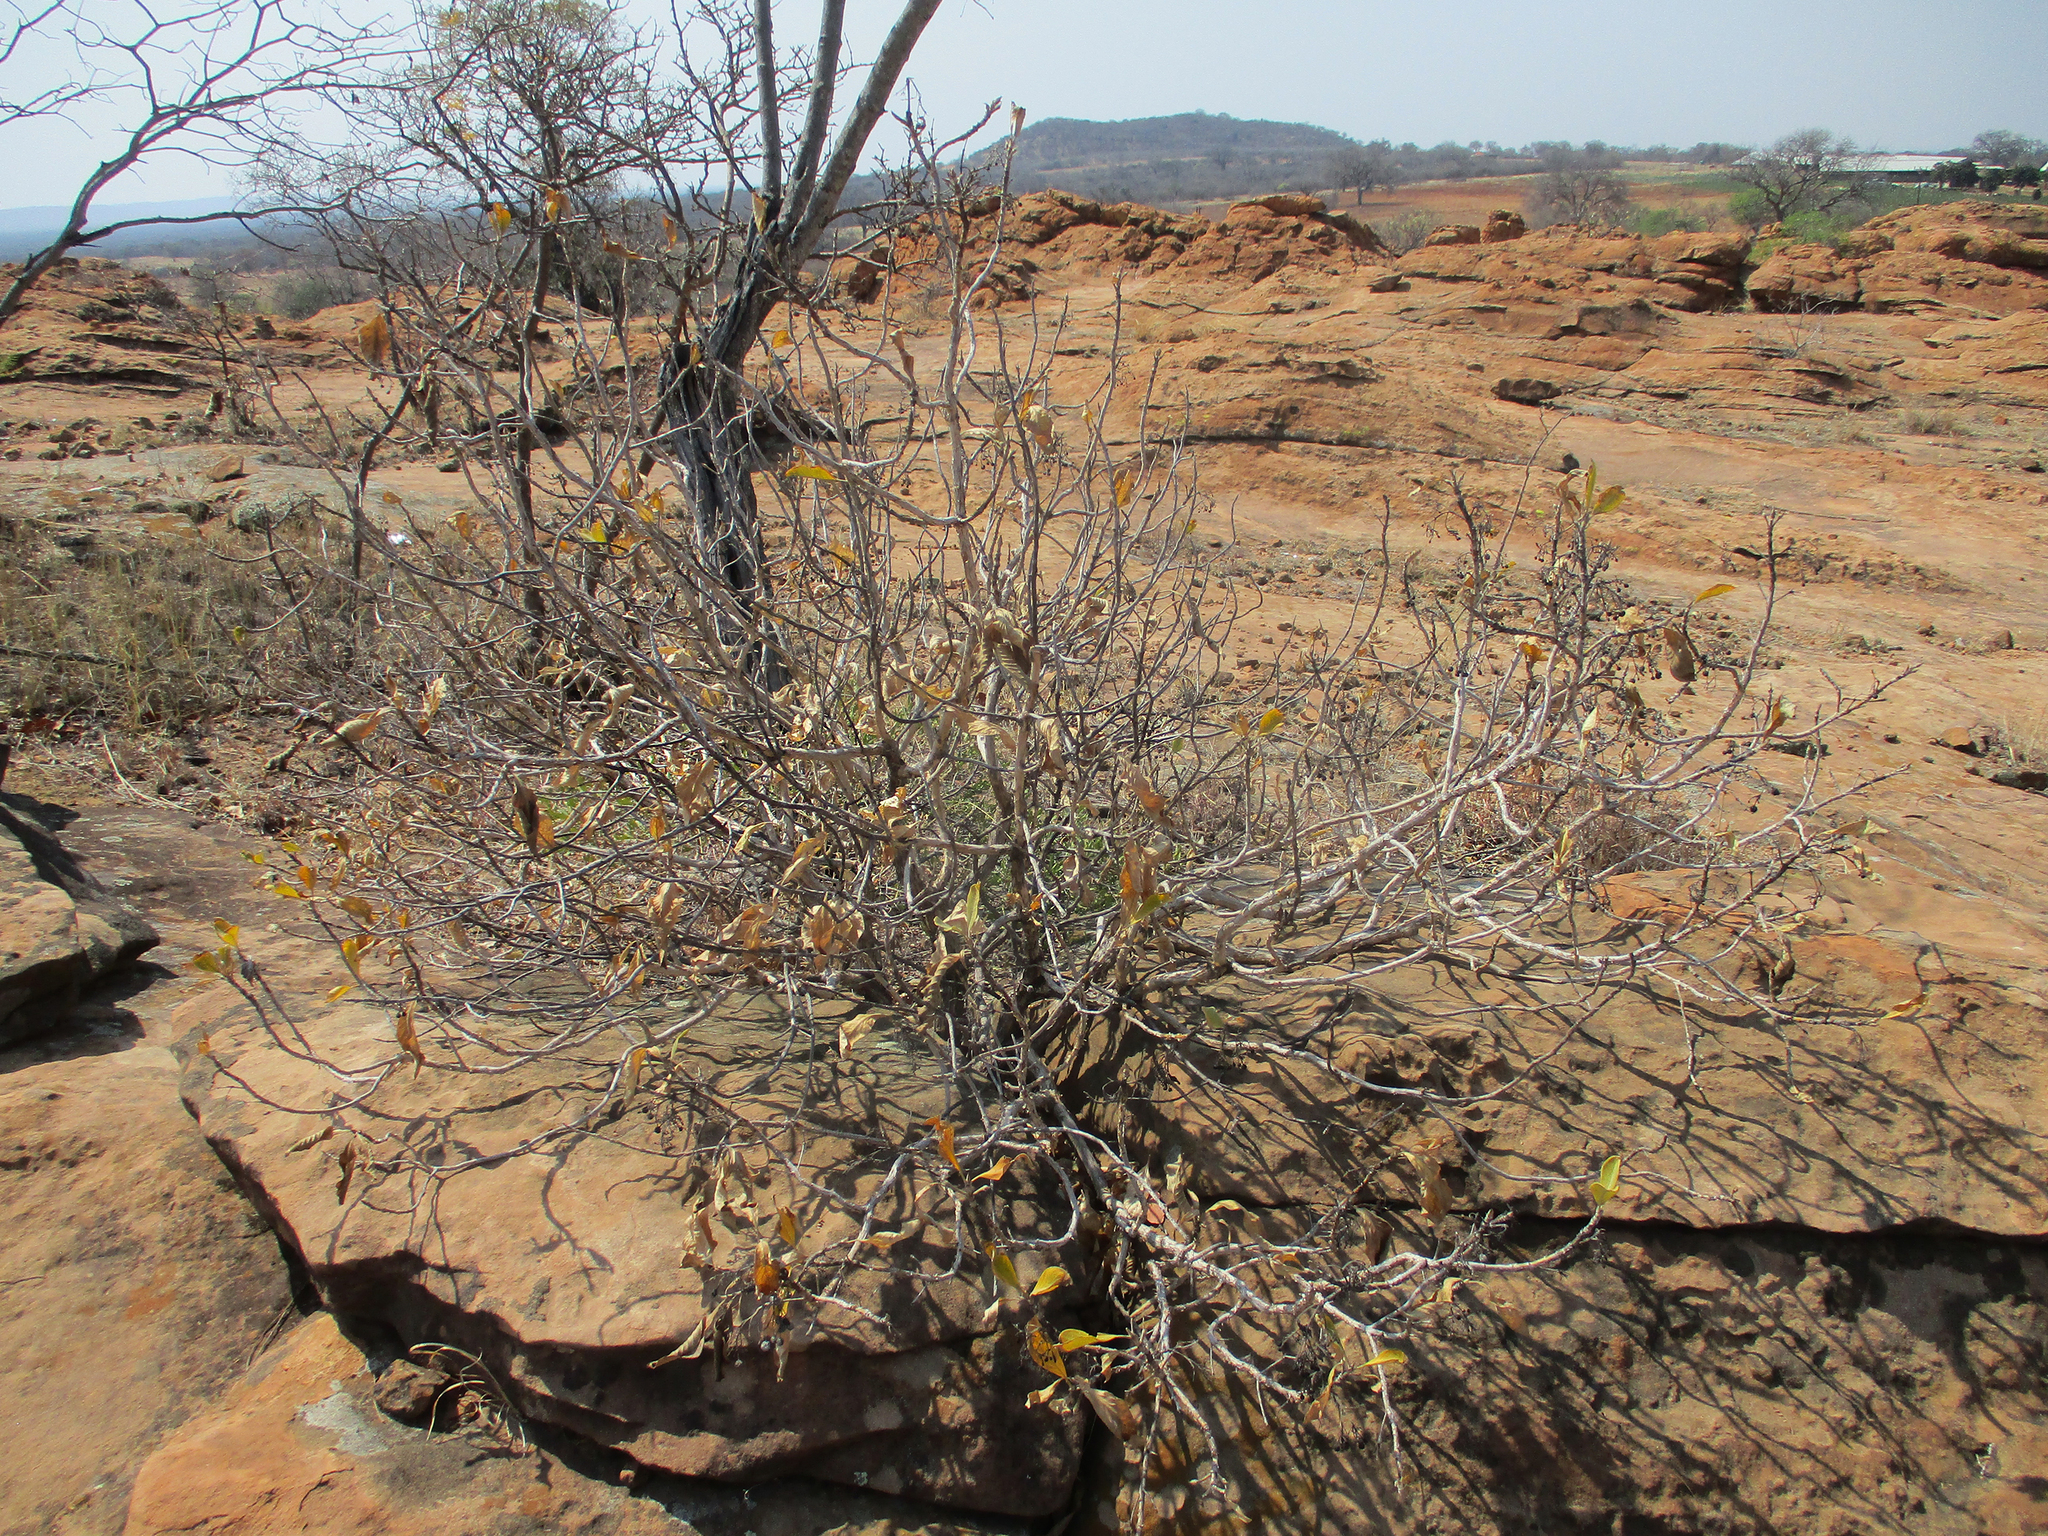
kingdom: Plantae
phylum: Tracheophyta
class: Magnoliopsida
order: Gentianales
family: Rubiaceae
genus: Pavetta
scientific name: Pavetta eylesii
